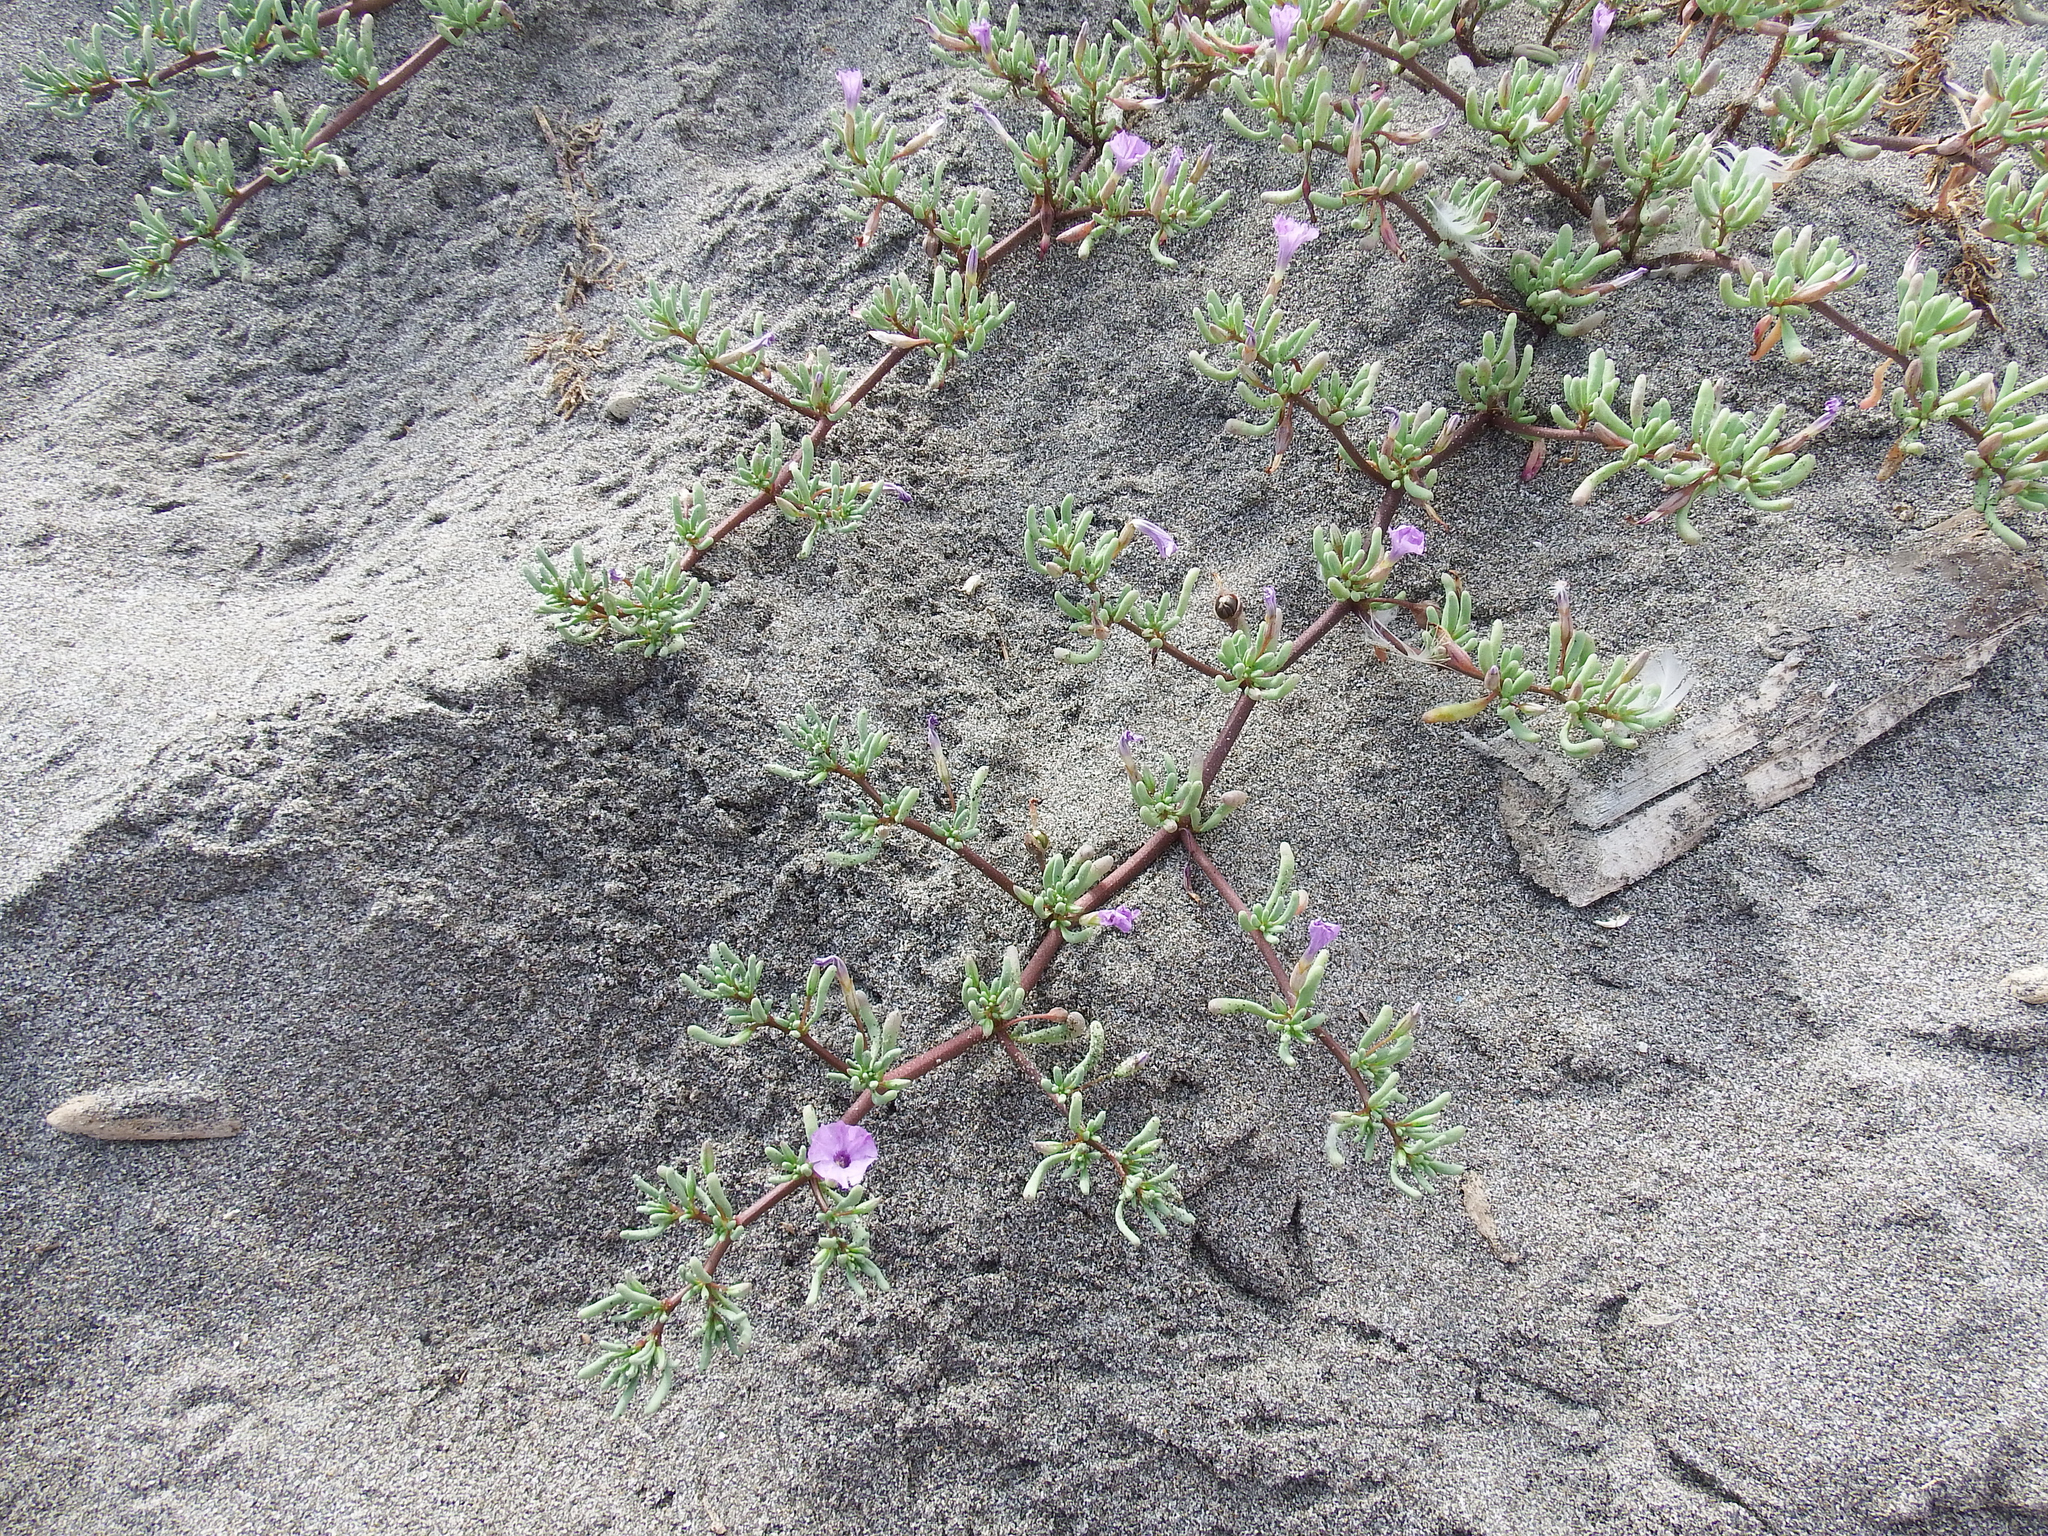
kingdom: Plantae
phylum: Tracheophyta
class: Magnoliopsida
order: Solanales
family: Solanaceae
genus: Nolana
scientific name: Nolana tarapacana
